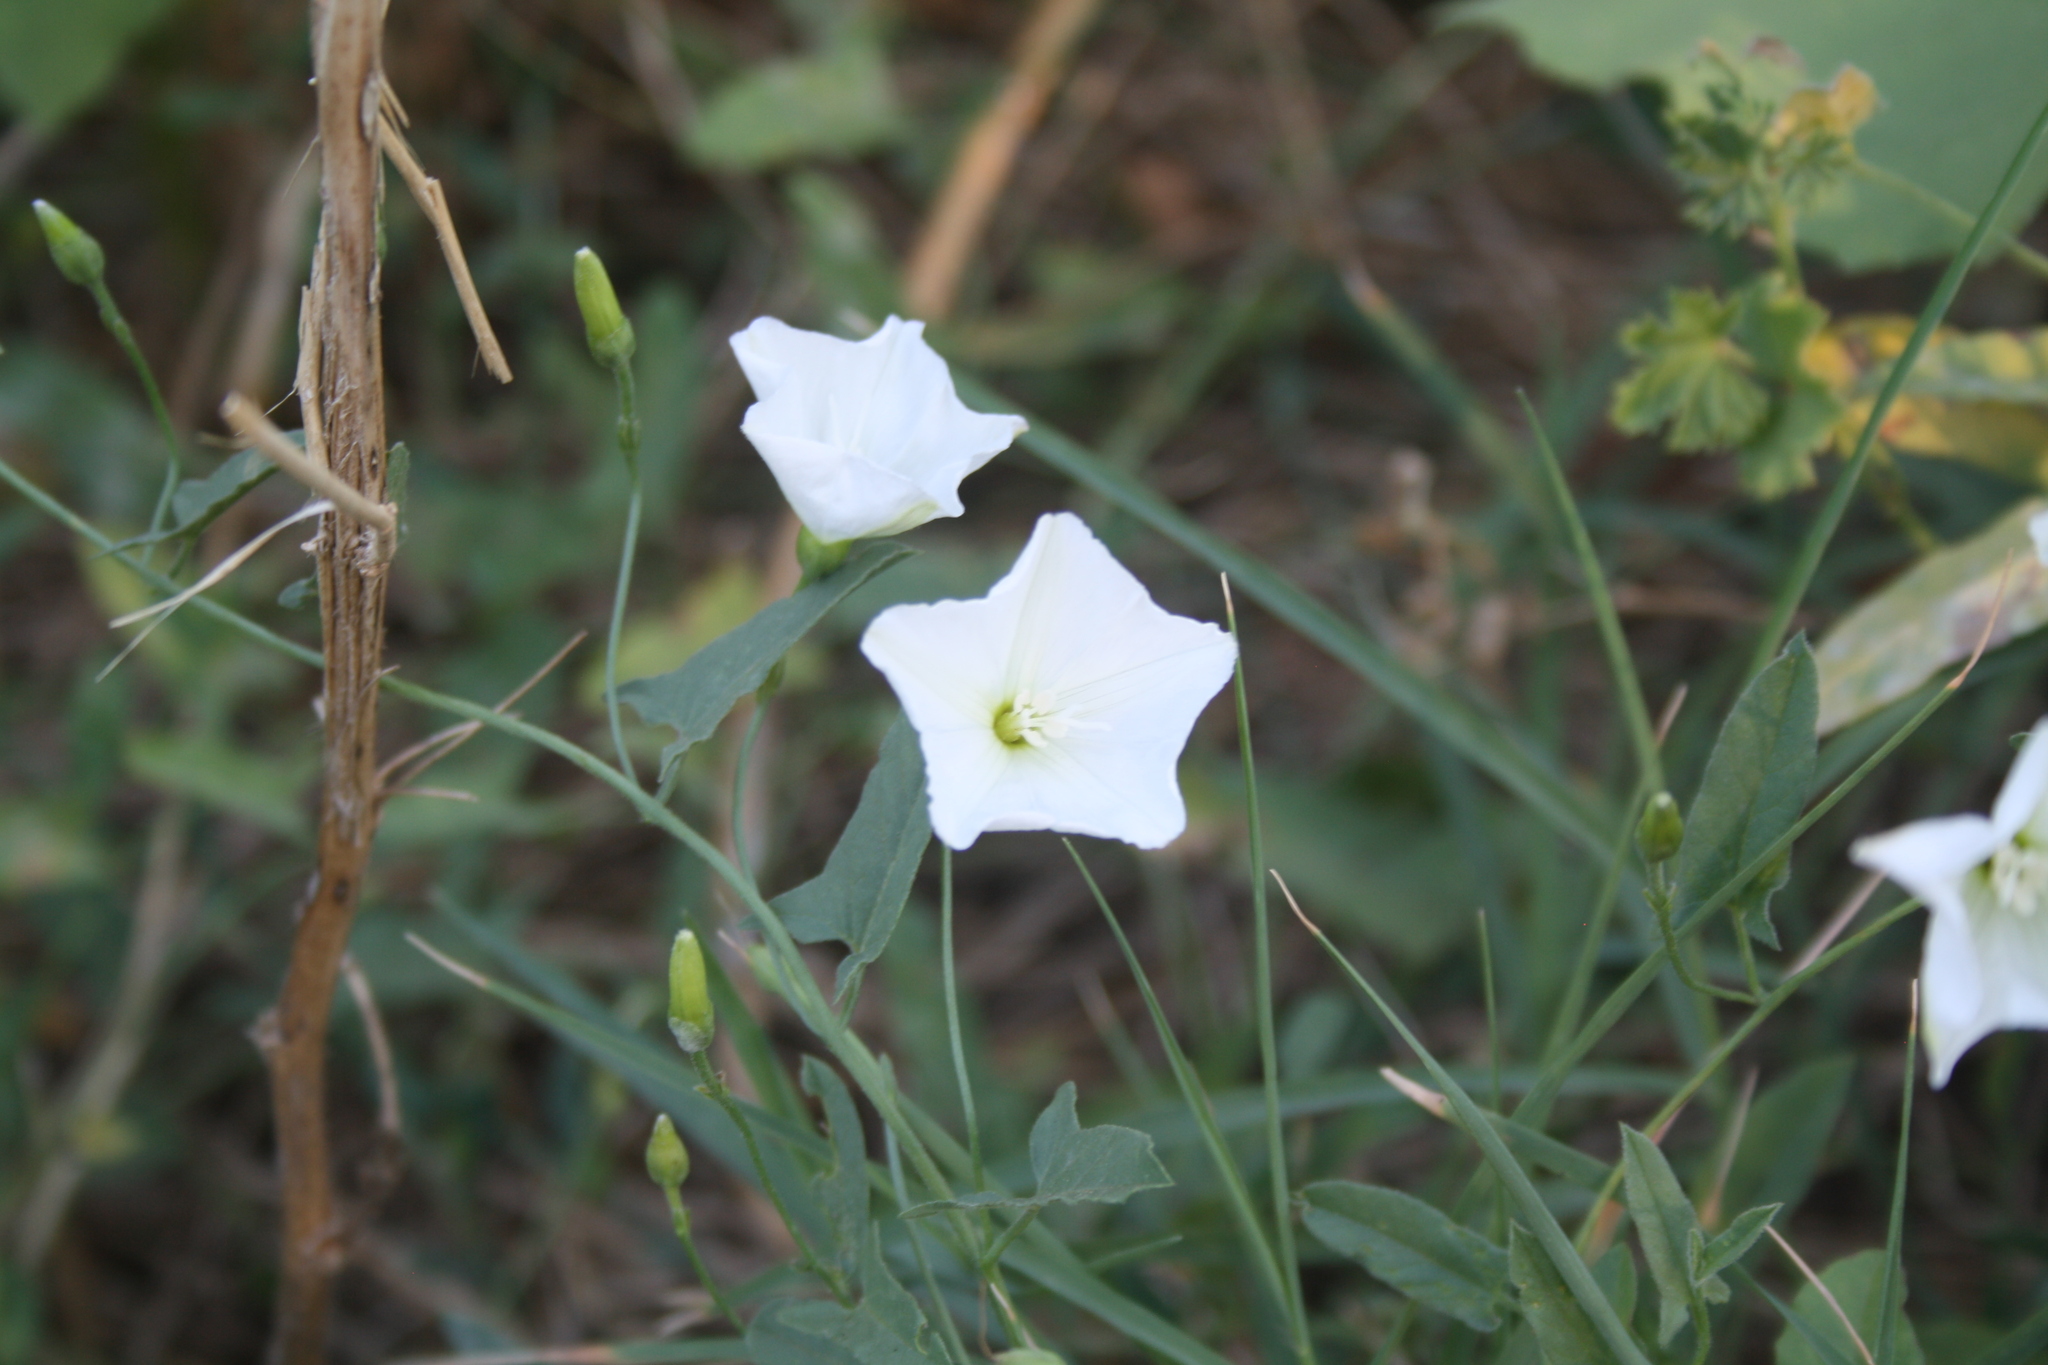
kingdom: Plantae
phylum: Tracheophyta
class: Magnoliopsida
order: Solanales
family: Convolvulaceae
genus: Convolvulus
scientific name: Convolvulus arvensis
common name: Field bindweed
